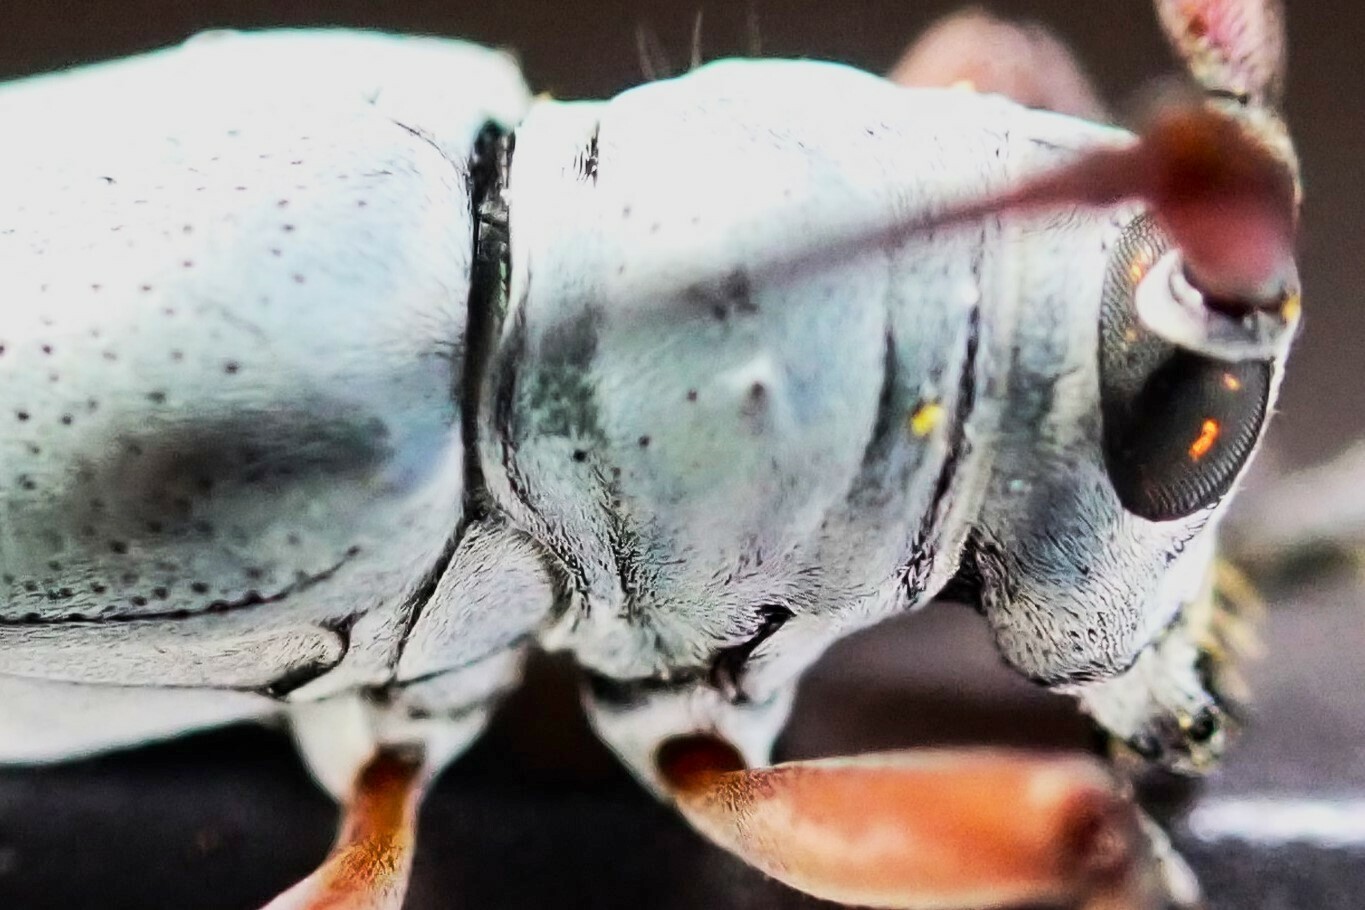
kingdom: Animalia
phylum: Arthropoda
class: Insecta
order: Coleoptera
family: Cerambycidae
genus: Prosopocera
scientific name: Prosopocera jacobeae
